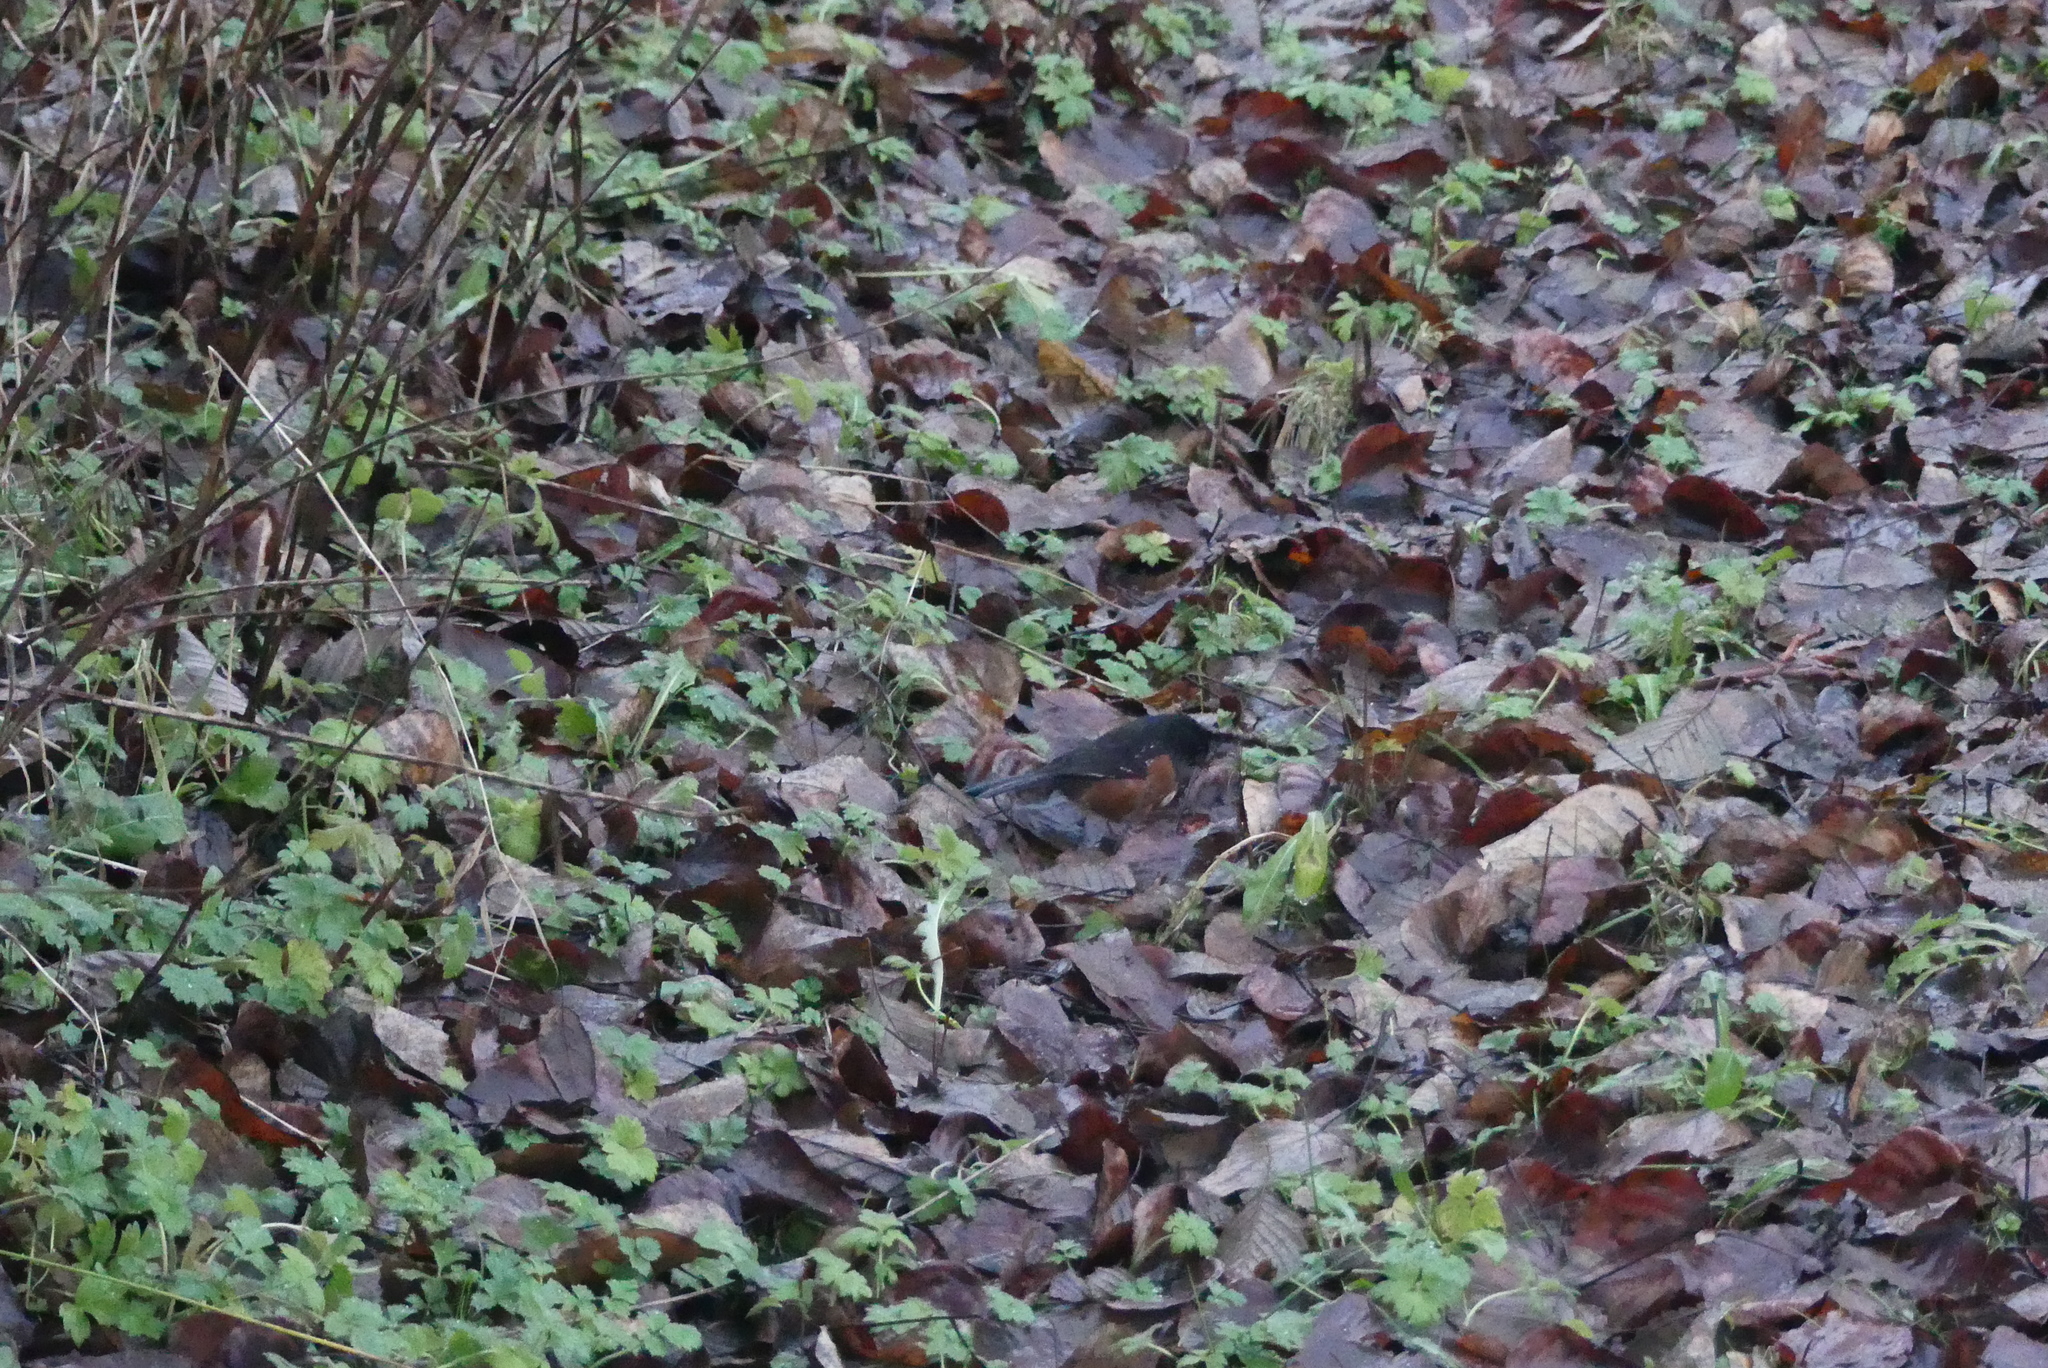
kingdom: Animalia
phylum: Chordata
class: Aves
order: Passeriformes
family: Passerellidae
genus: Pipilo
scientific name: Pipilo maculatus
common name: Spotted towhee
